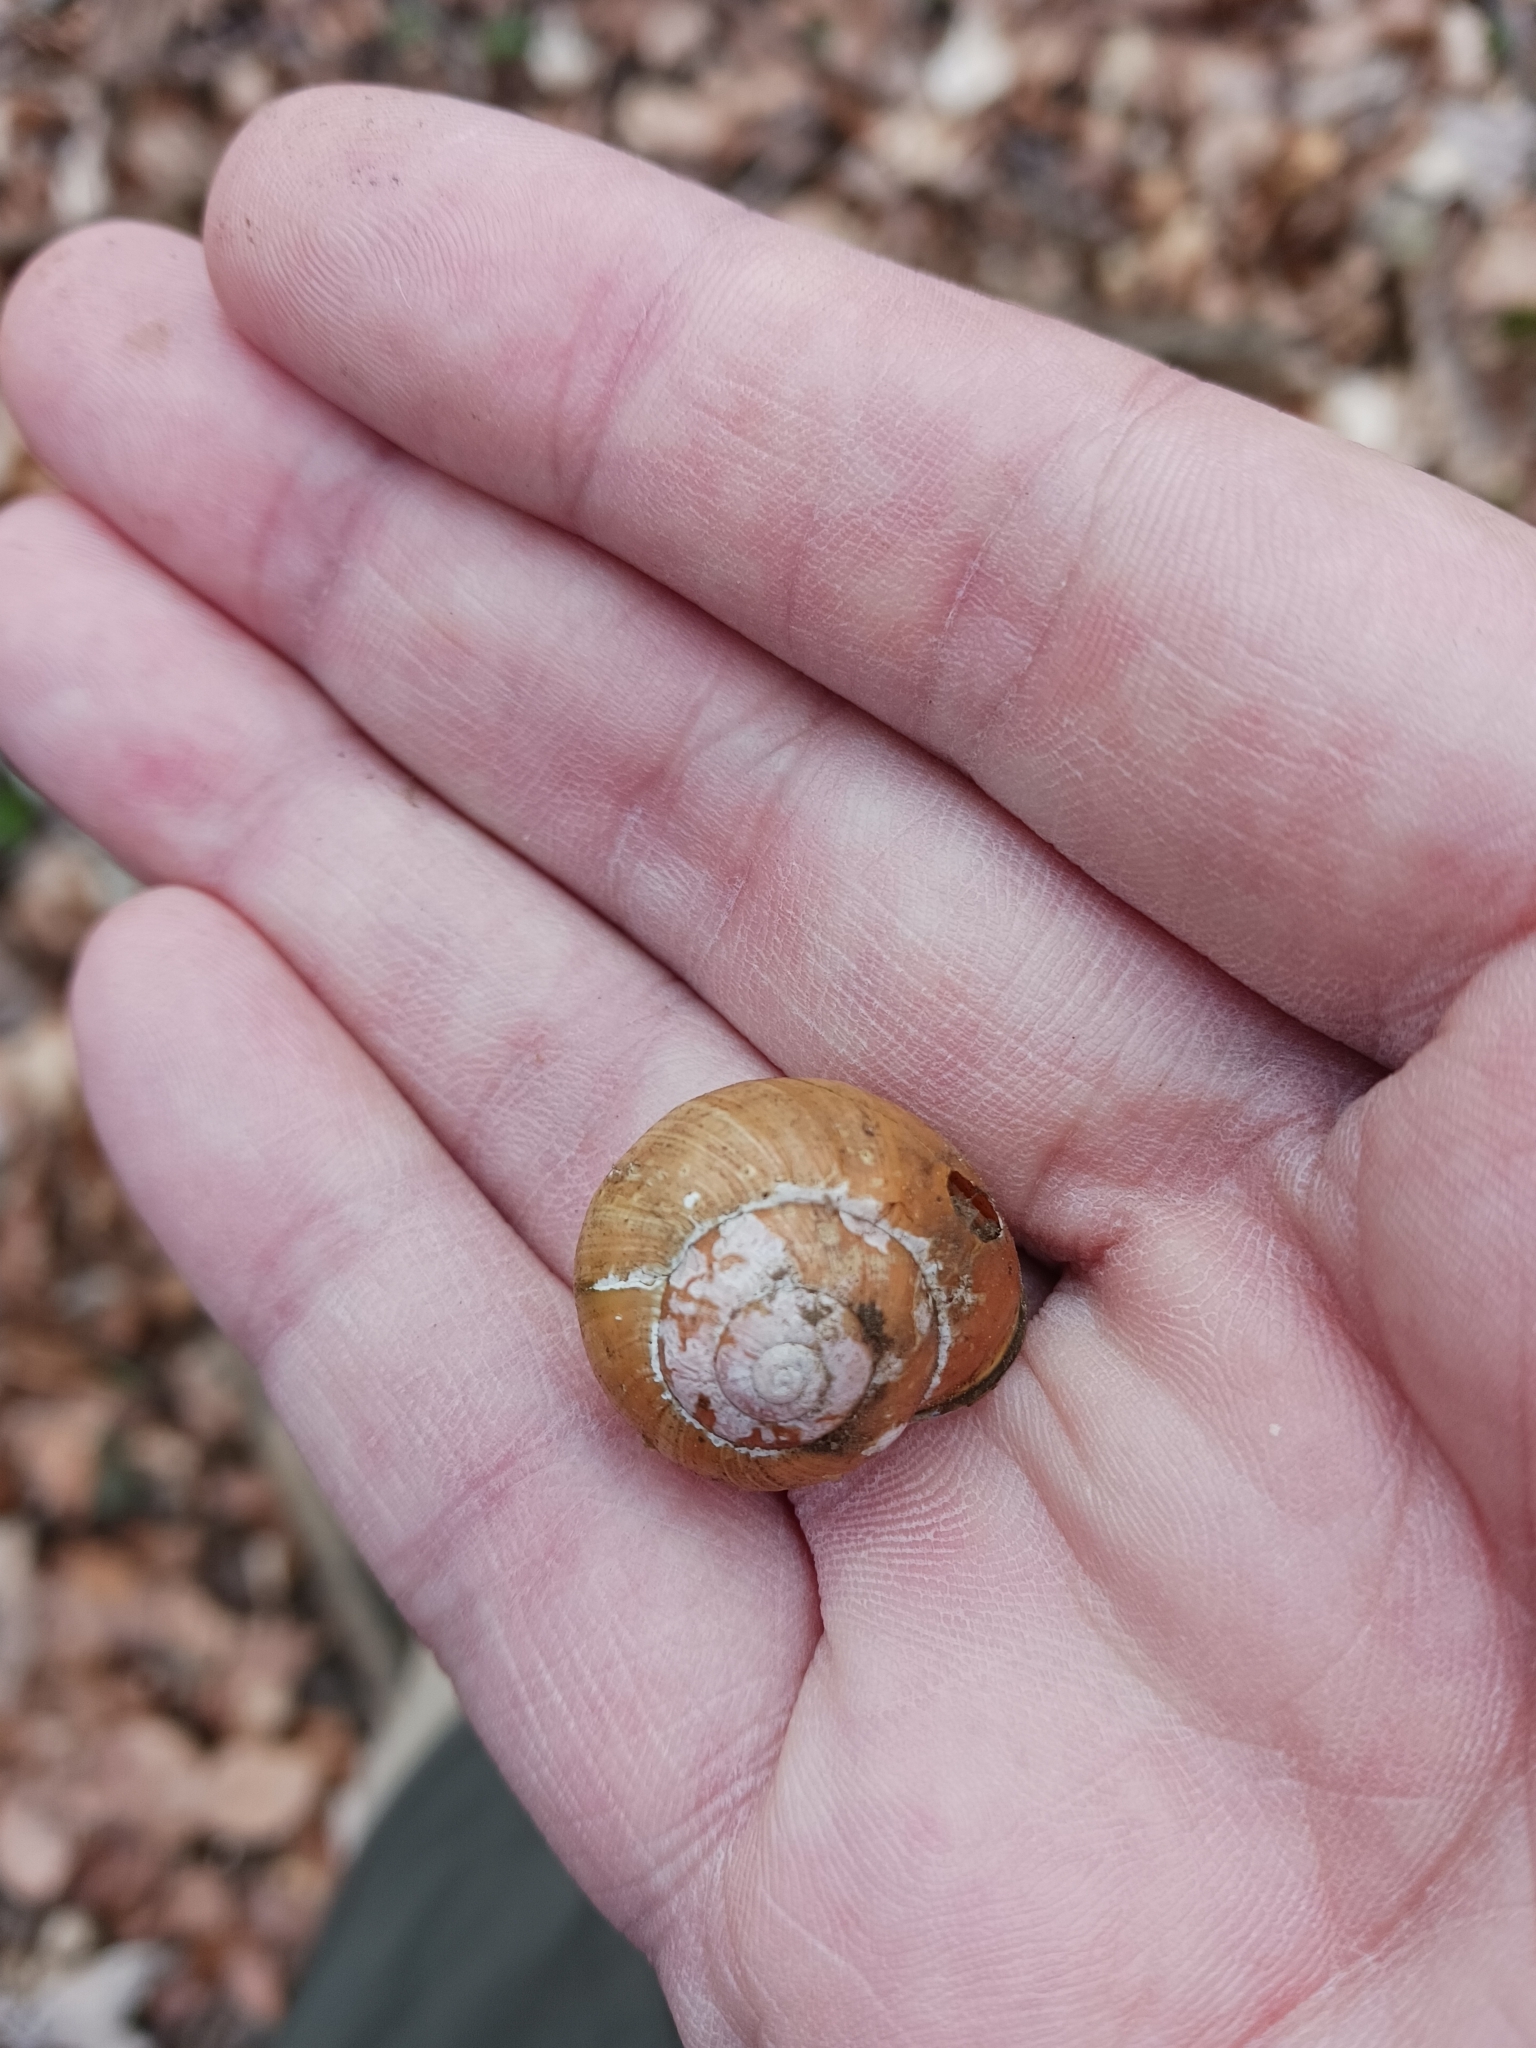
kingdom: Animalia
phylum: Mollusca
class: Gastropoda
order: Stylommatophora
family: Helicidae
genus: Cepaea
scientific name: Cepaea nemoralis
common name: Grovesnail
